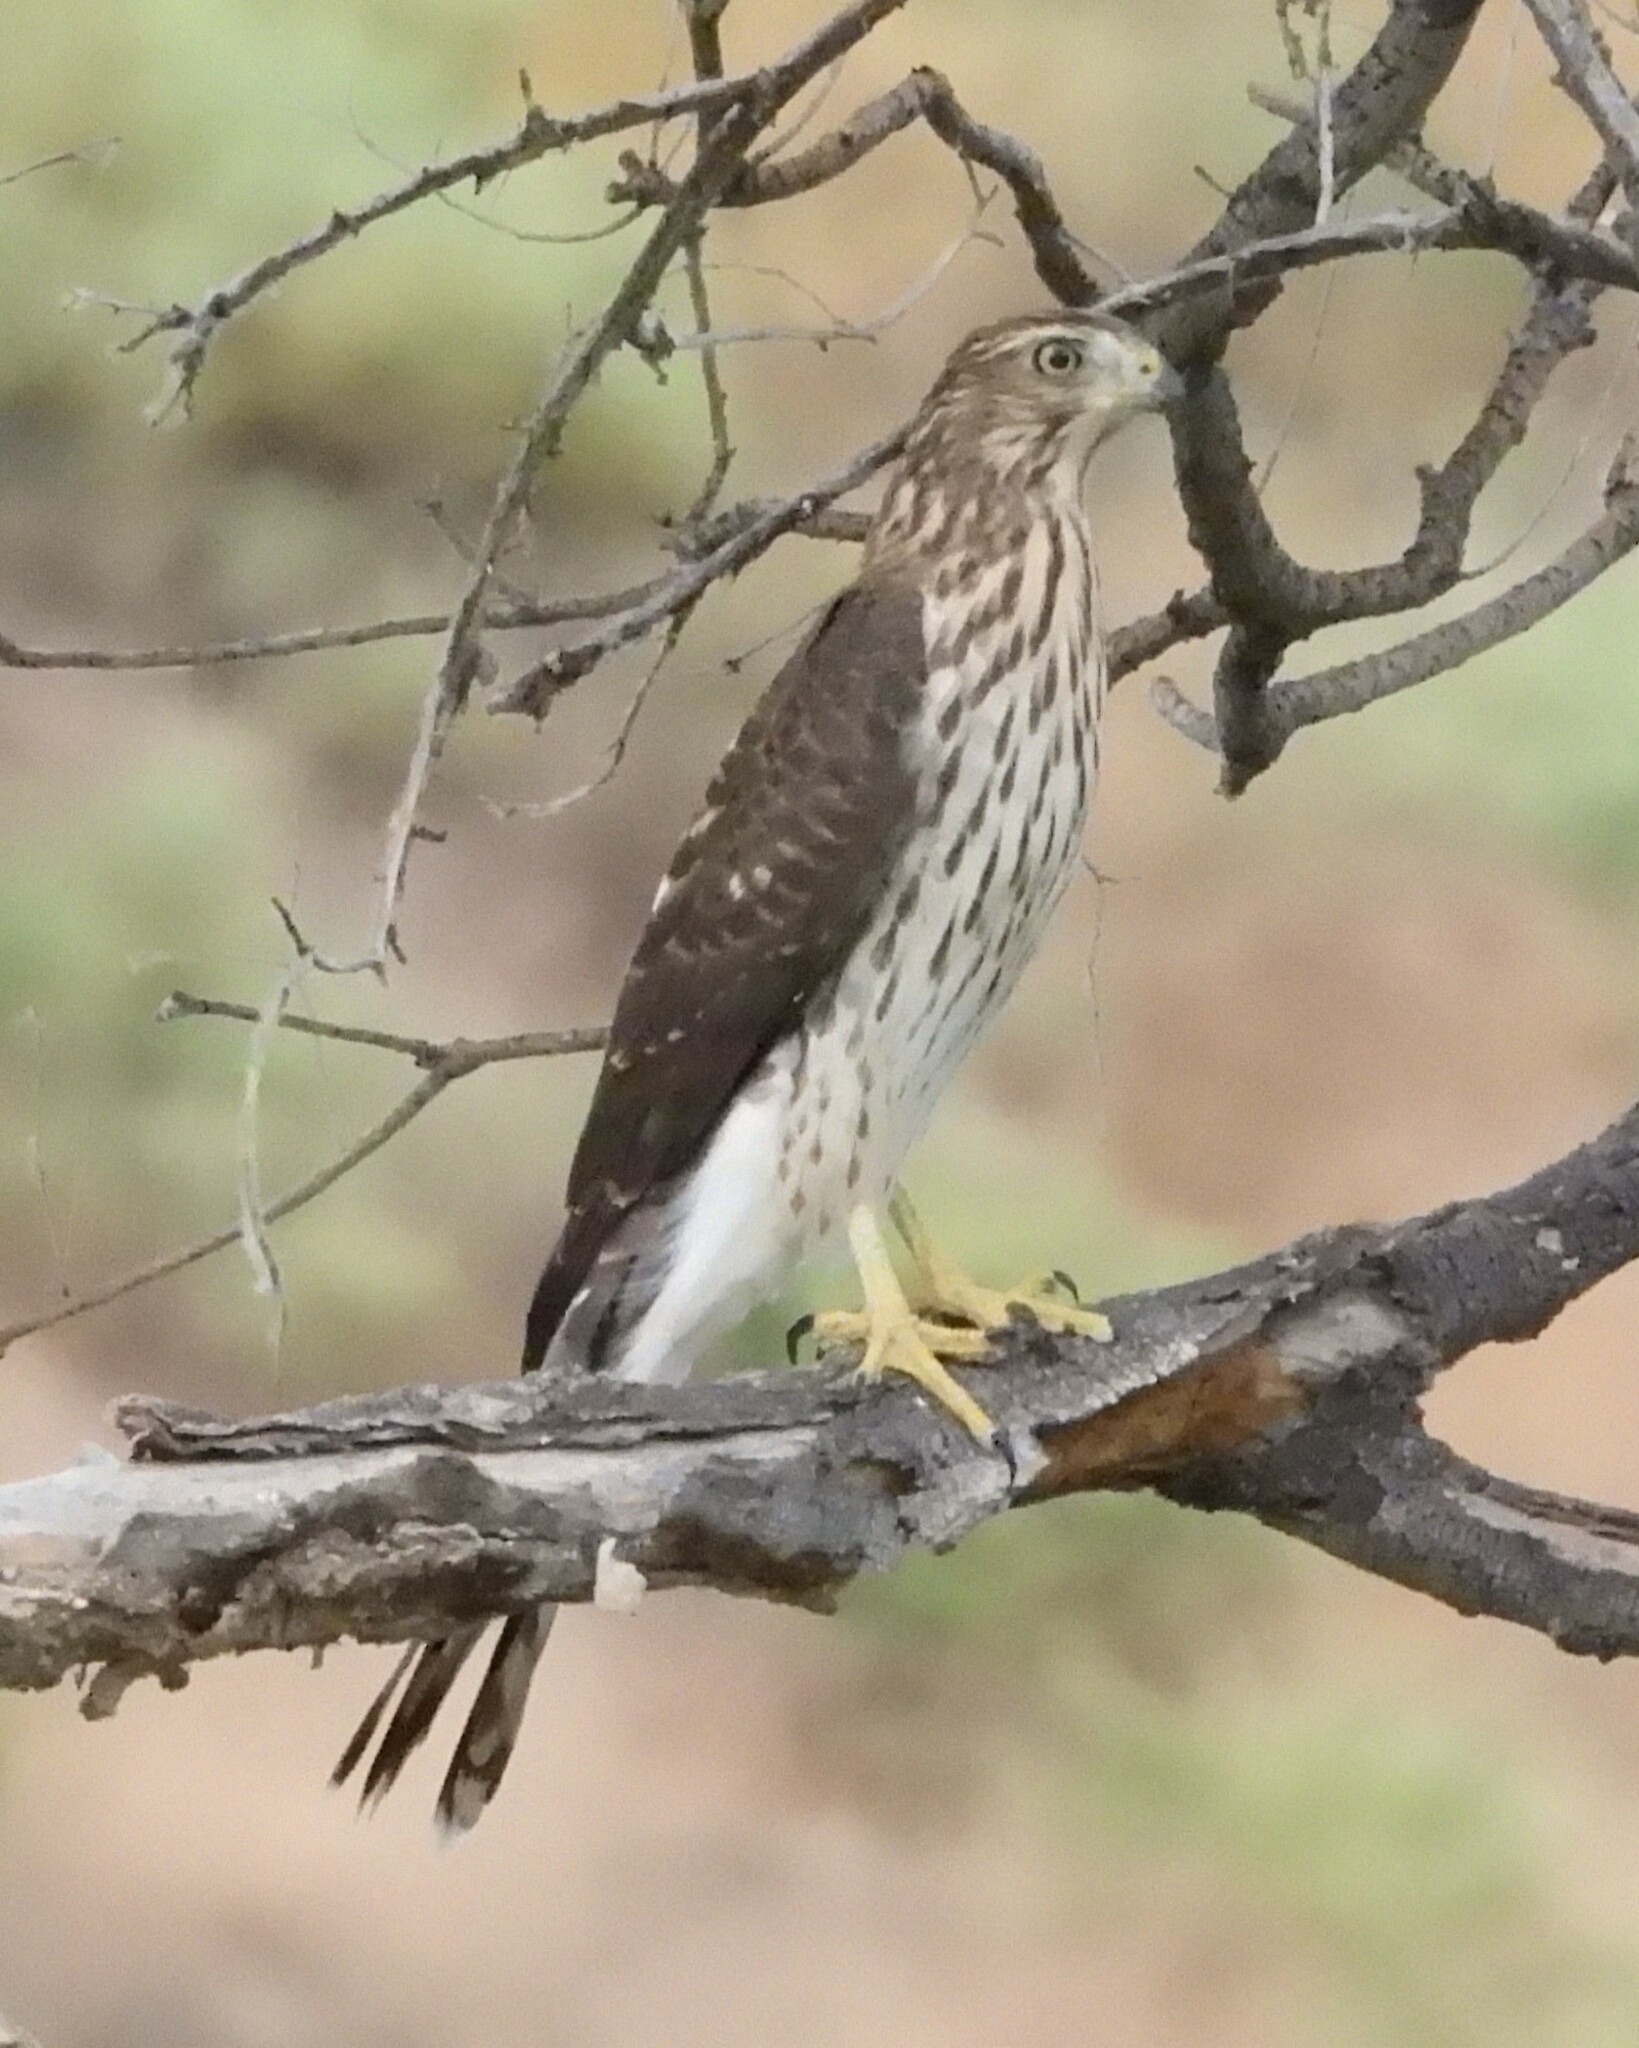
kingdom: Animalia
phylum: Chordata
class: Aves
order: Accipitriformes
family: Accipitridae
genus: Accipiter
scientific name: Accipiter cooperii
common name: Cooper's hawk
